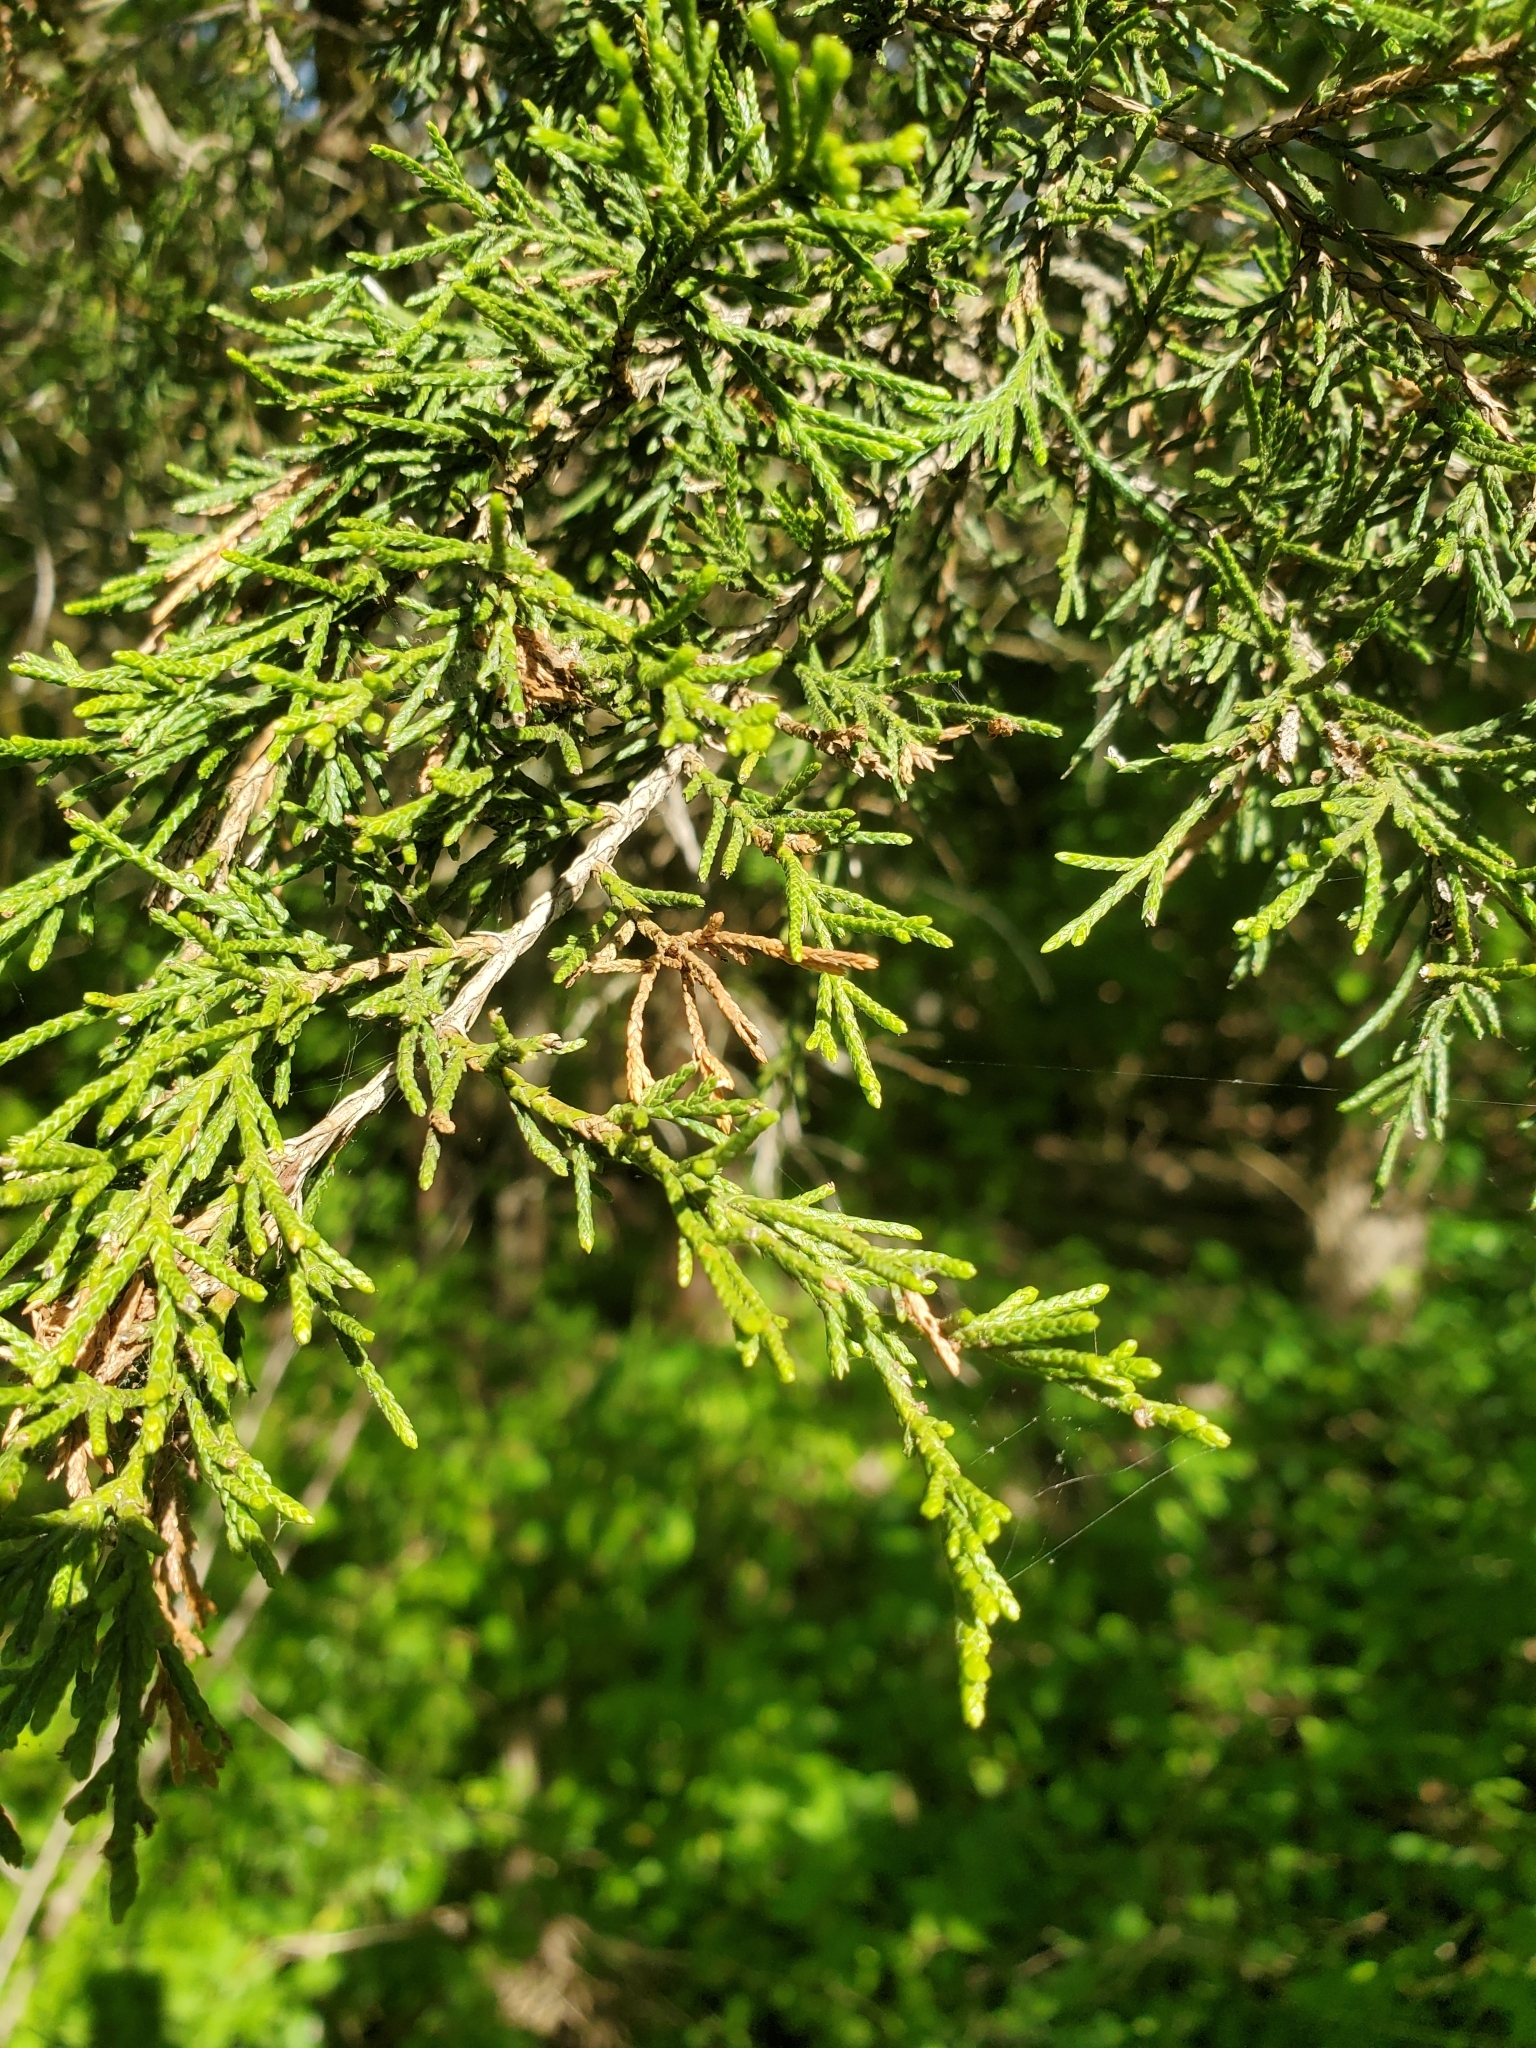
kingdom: Plantae
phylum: Tracheophyta
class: Pinopsida
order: Pinales
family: Cupressaceae
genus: Juniperus
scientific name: Juniperus virginiana
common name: Red juniper
